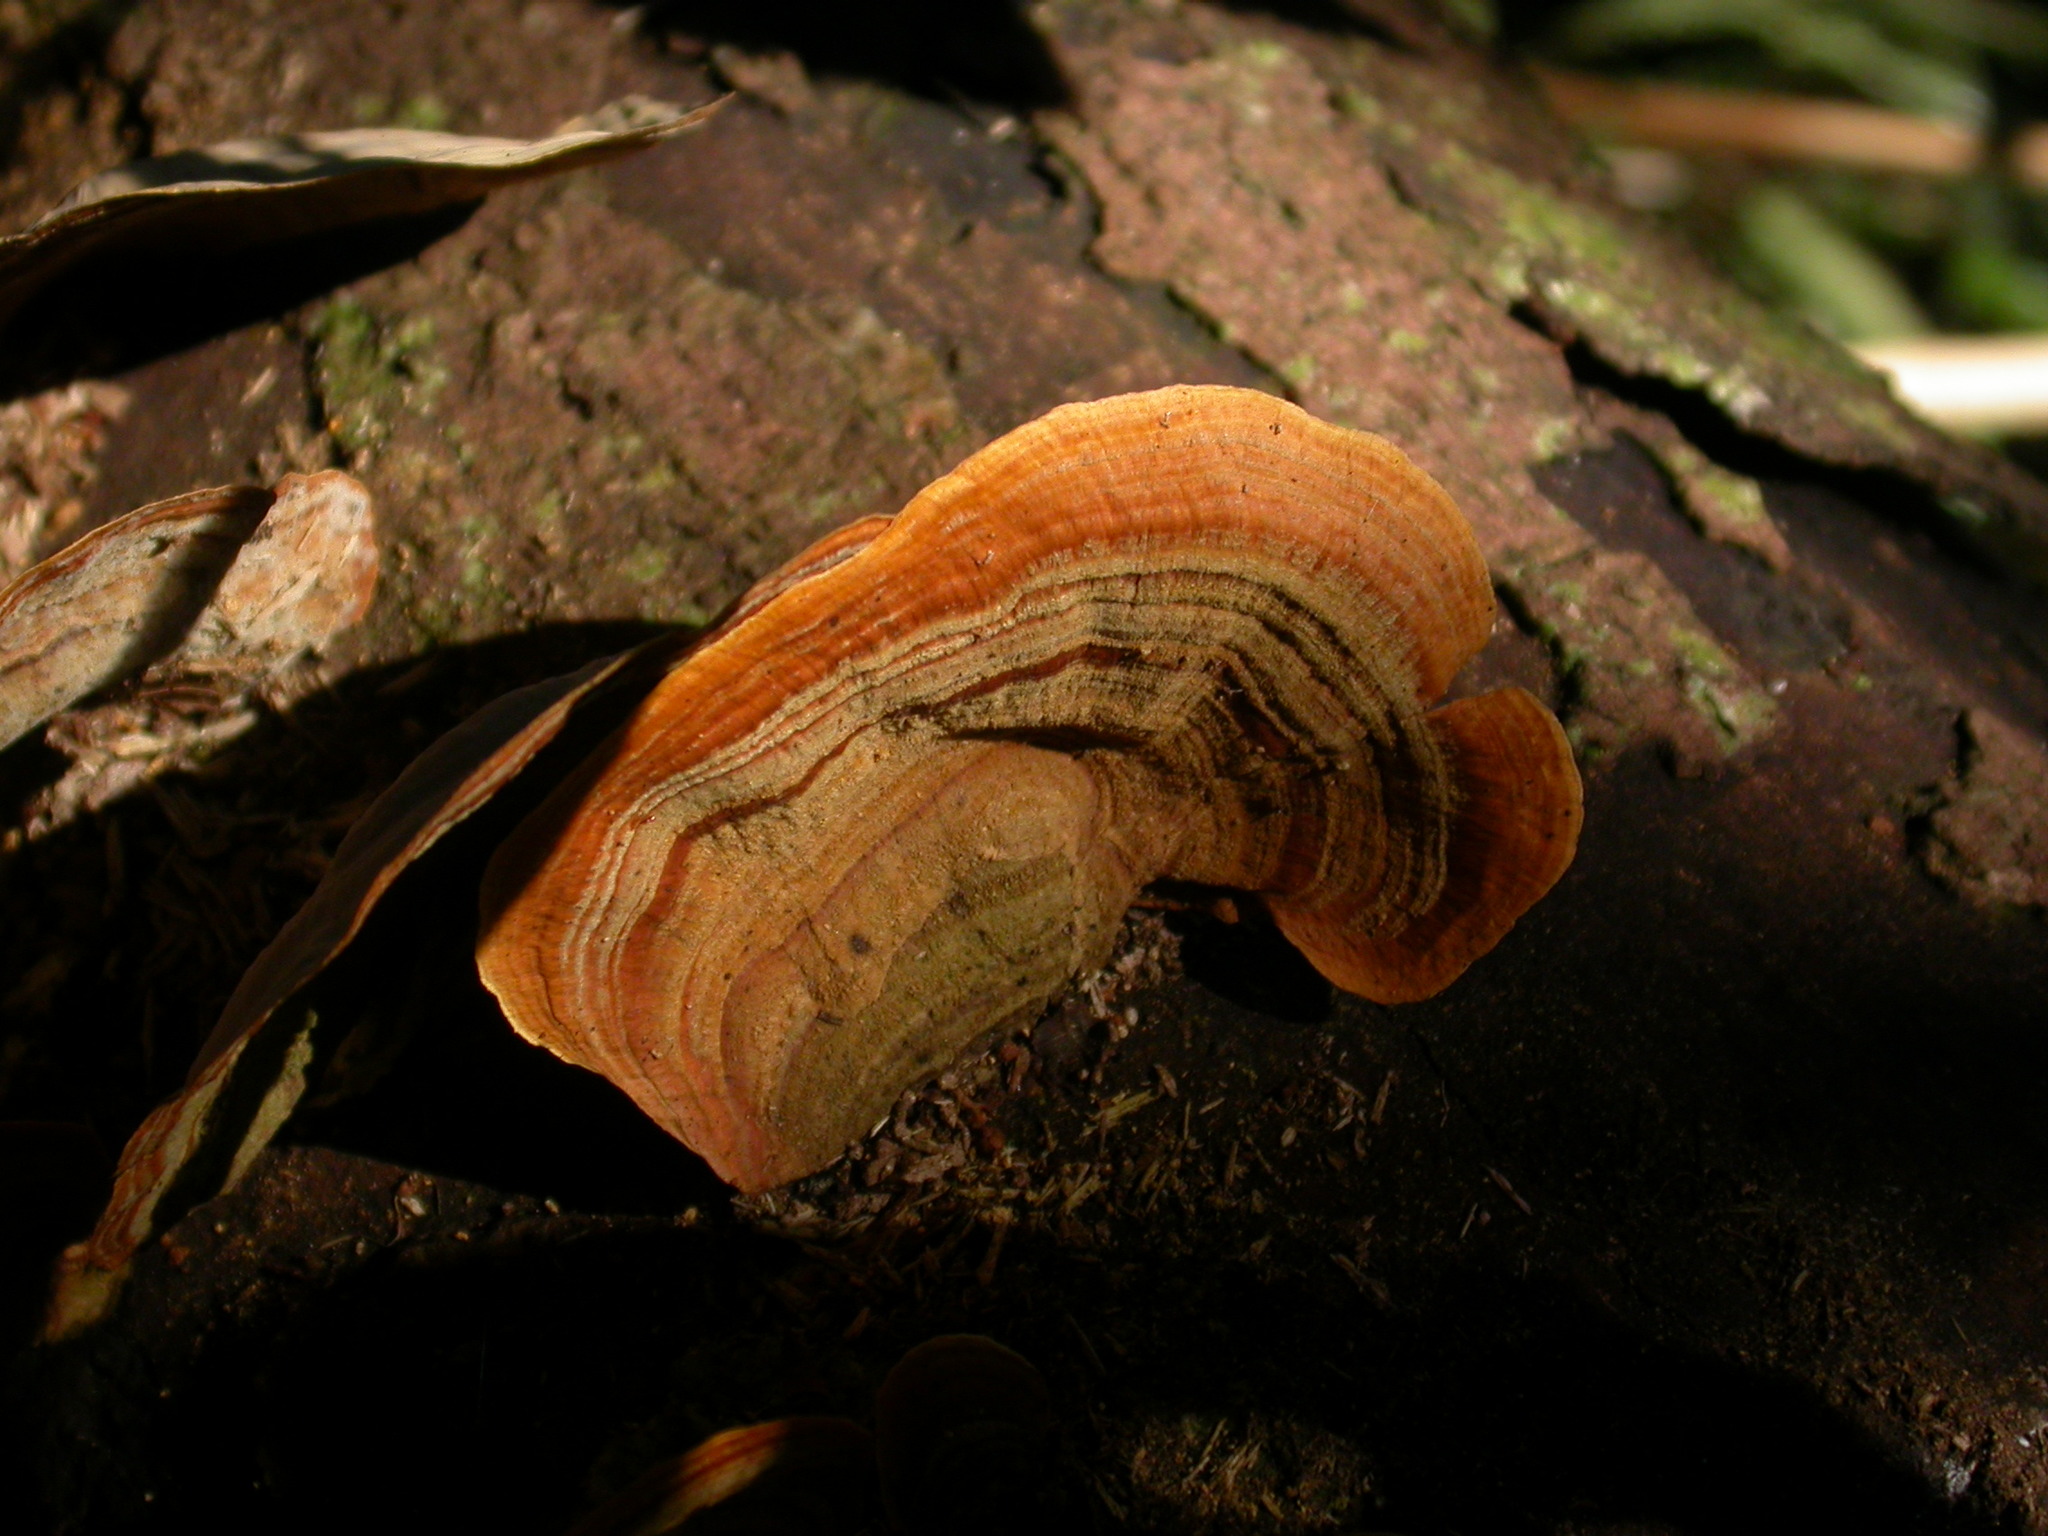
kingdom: Fungi
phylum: Basidiomycota
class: Agaricomycetes
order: Russulales
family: Stereaceae
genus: Stereum
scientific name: Stereum versicolor
